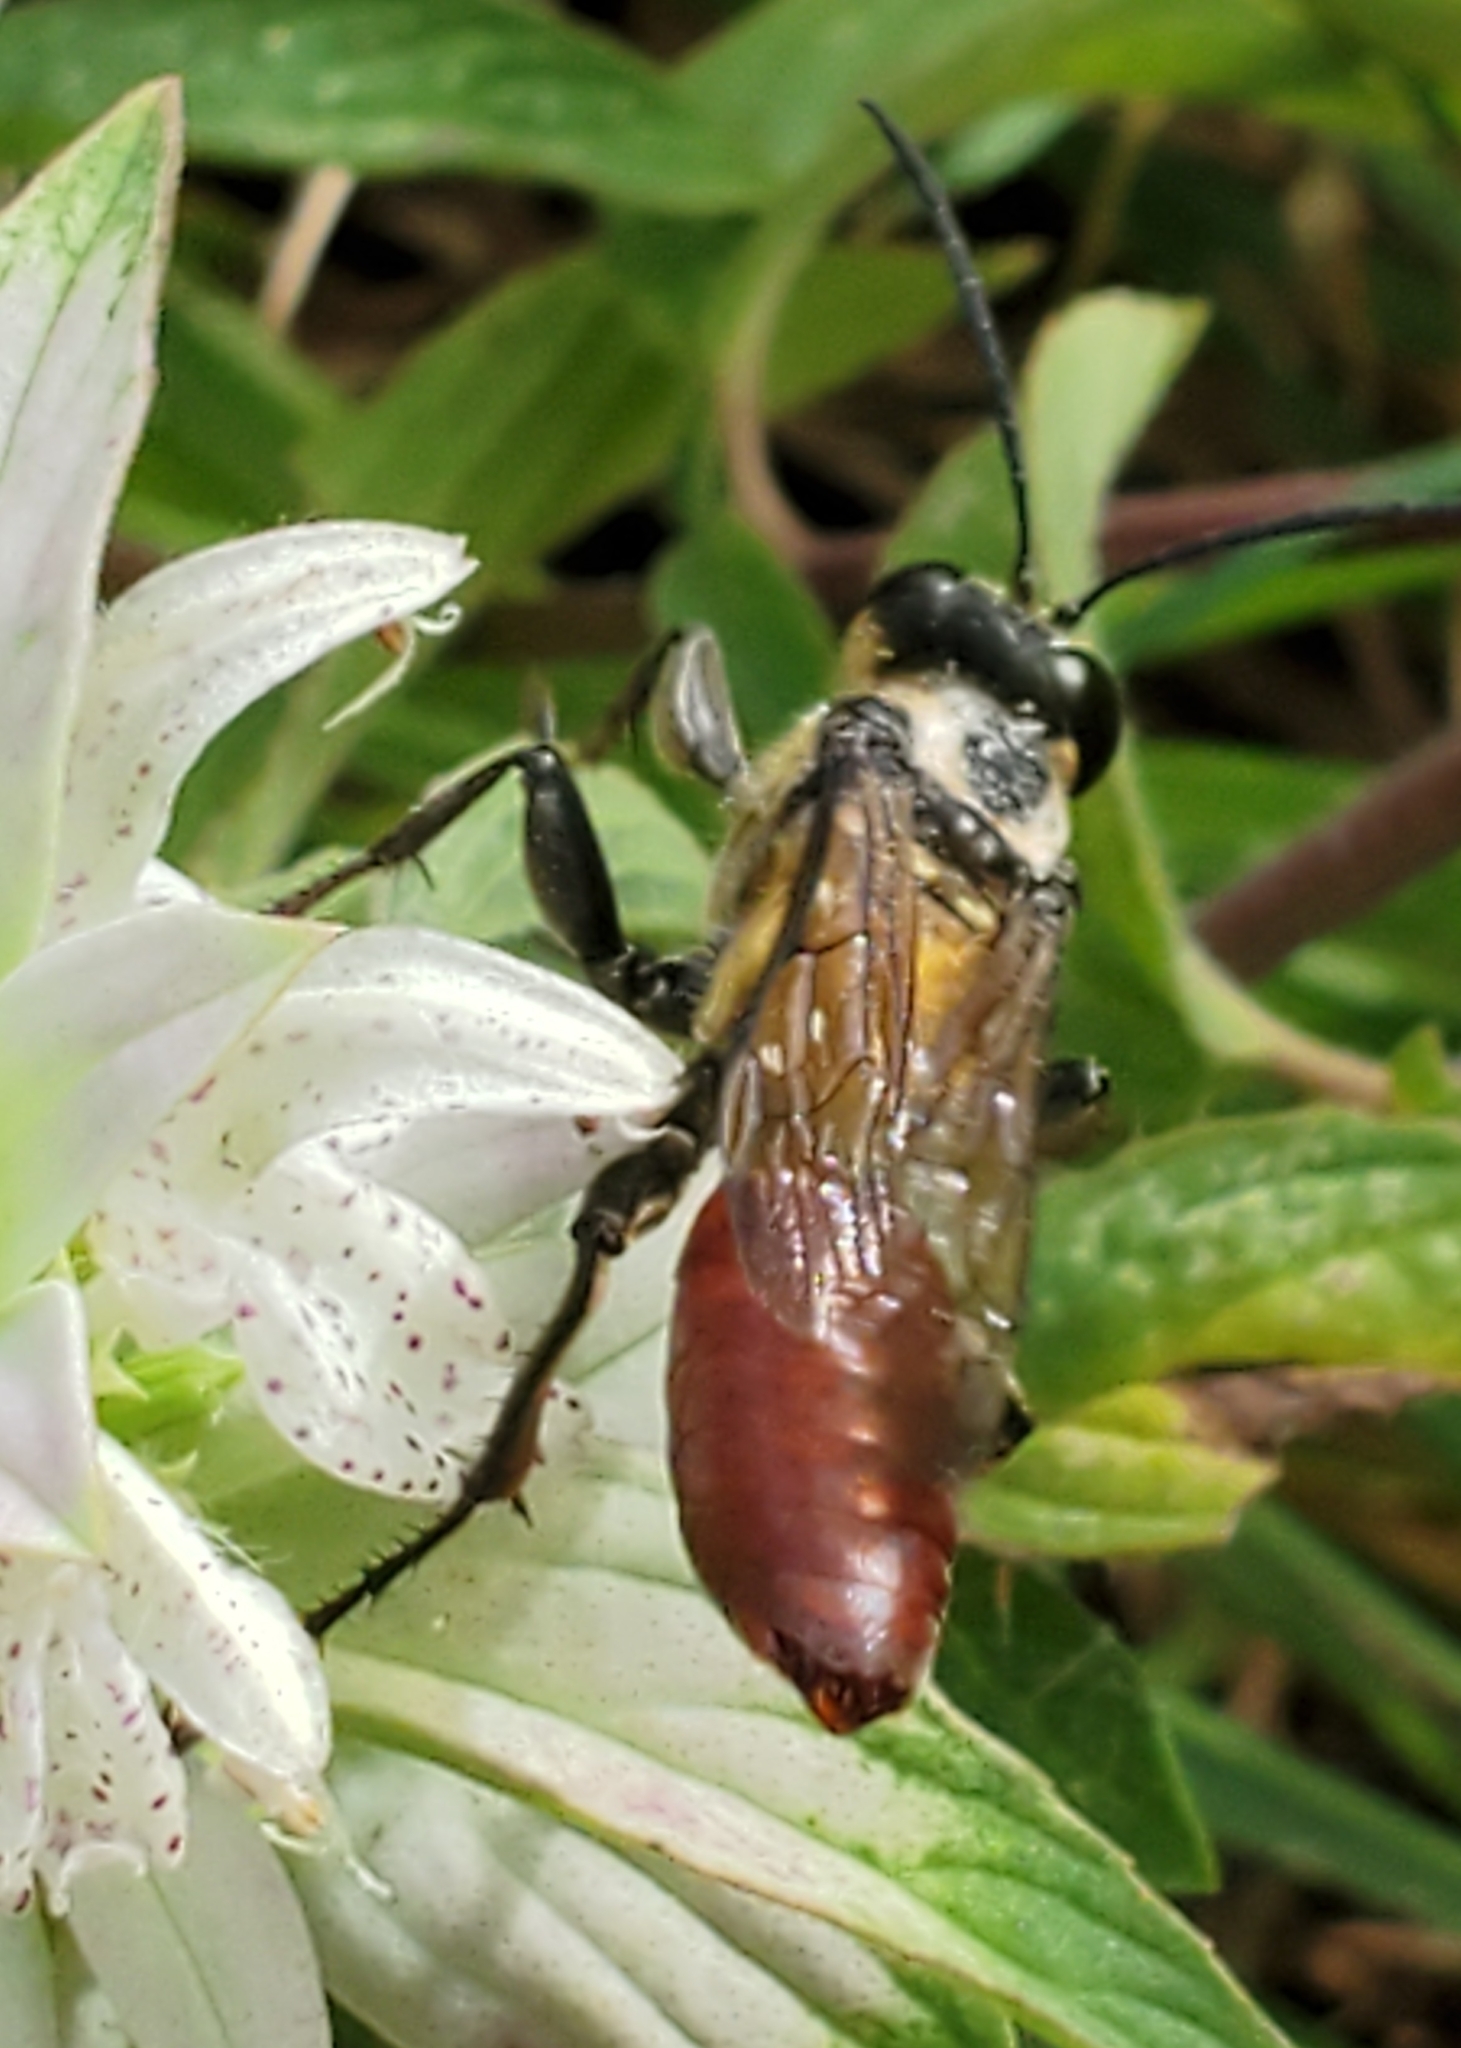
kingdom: Animalia
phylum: Arthropoda
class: Insecta
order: Hymenoptera
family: Sphecidae
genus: Sphex
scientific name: Sphex habenus
